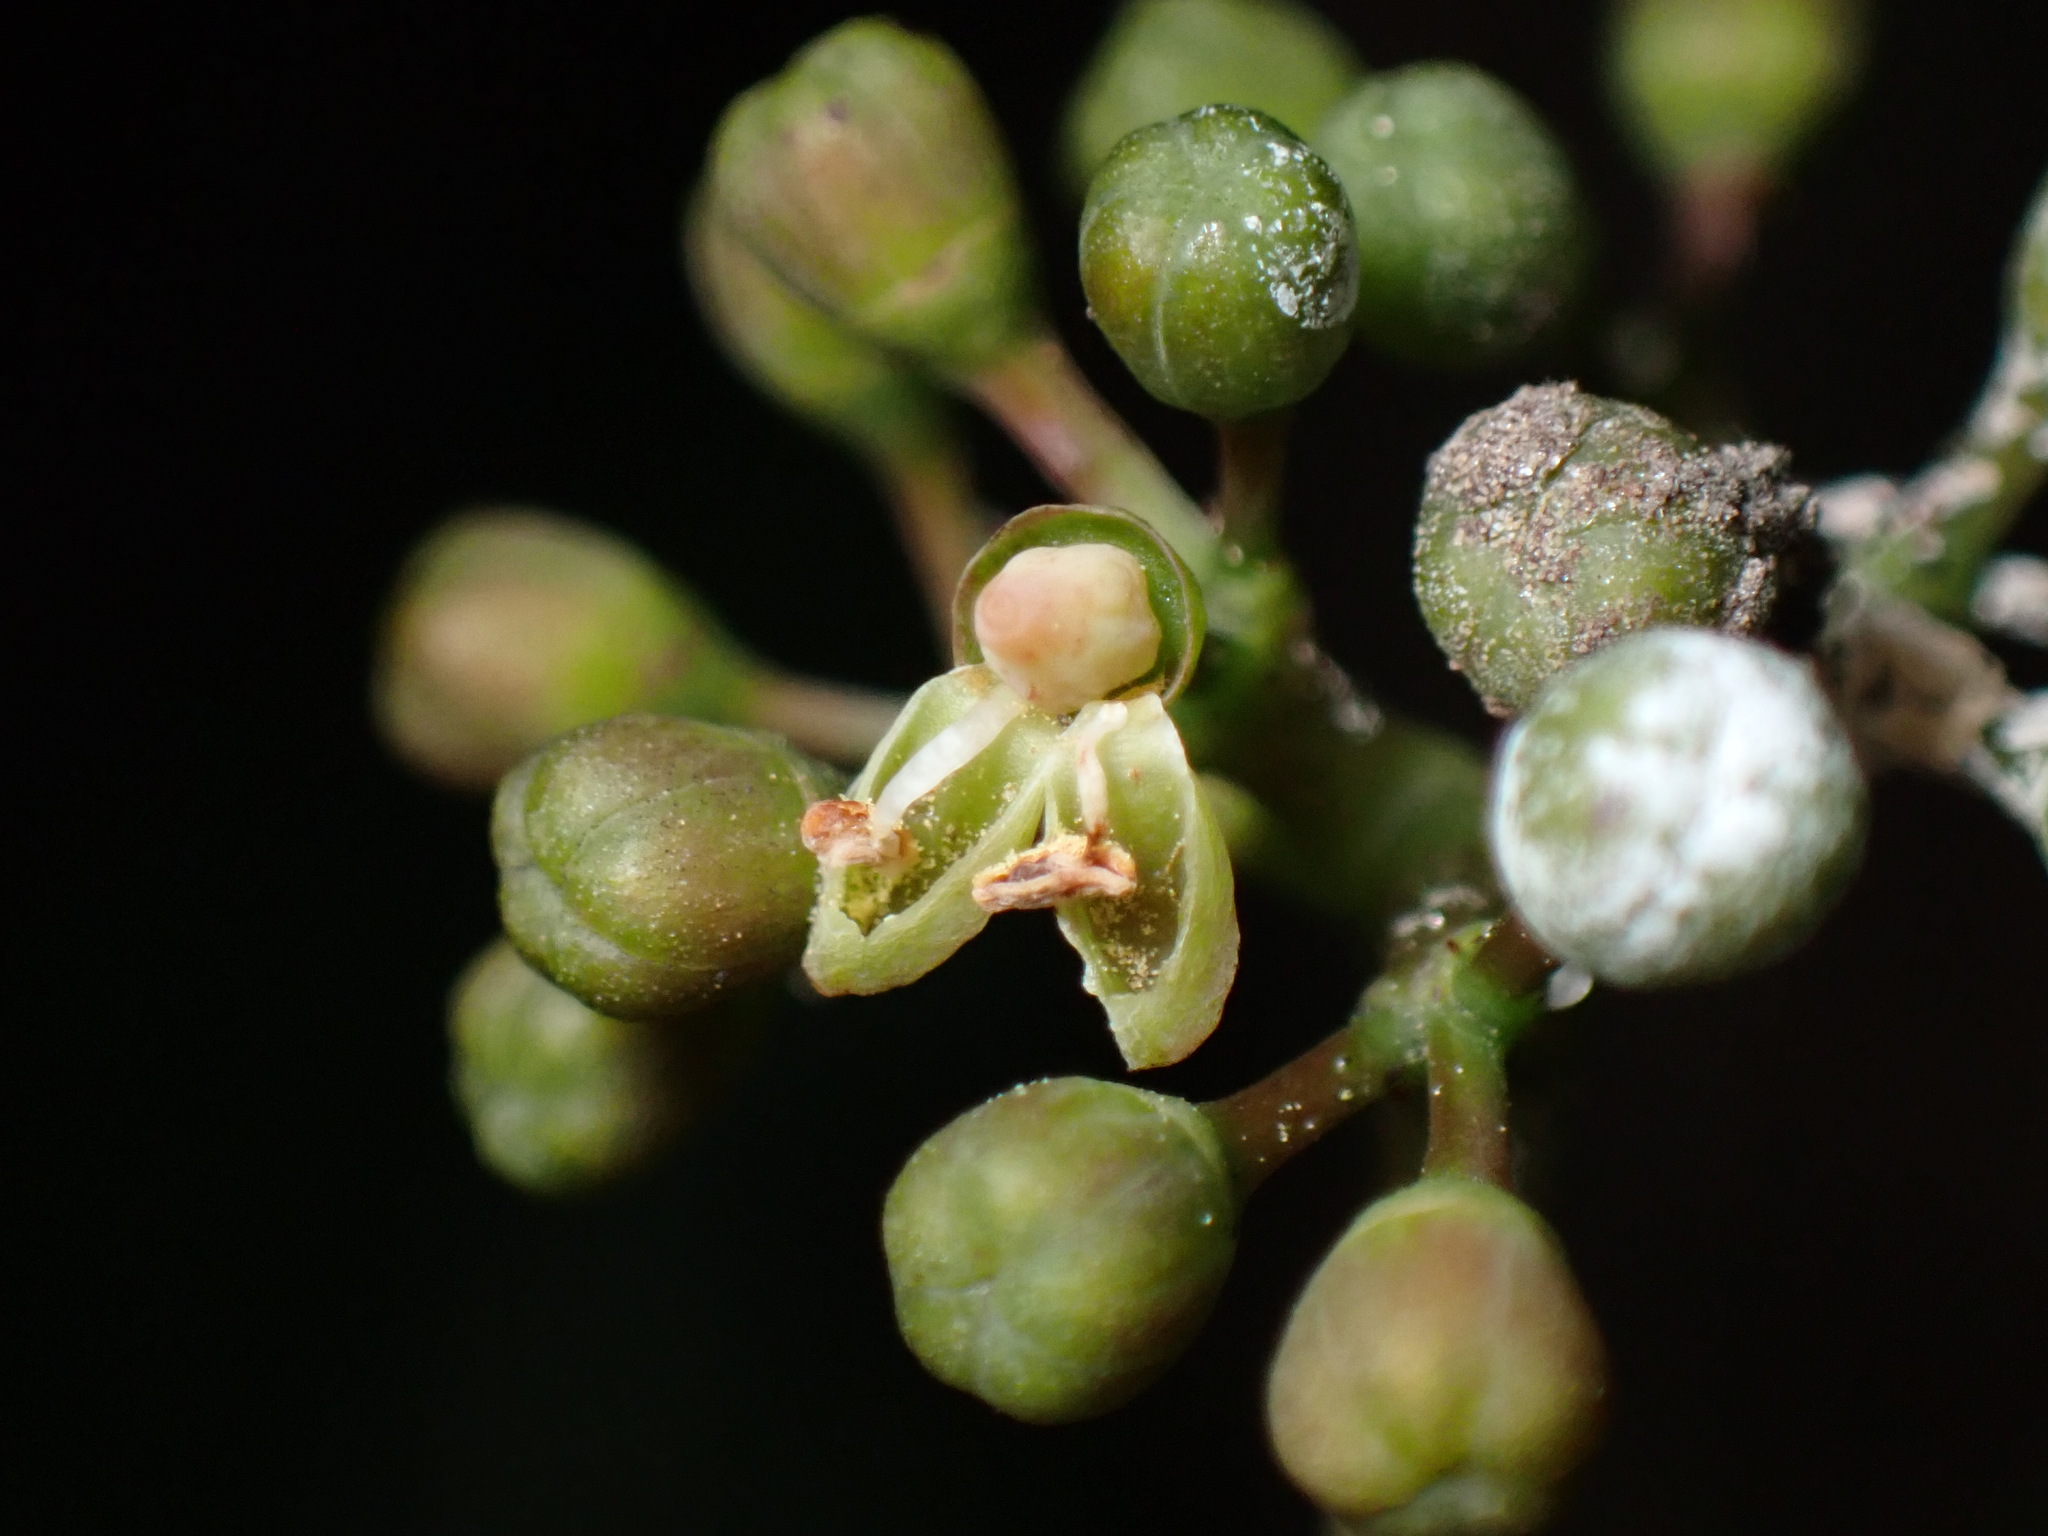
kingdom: Plantae
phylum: Tracheophyta
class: Magnoliopsida
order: Vitales
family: Vitaceae
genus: Parthenocissus
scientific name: Parthenocissus quinquefolia
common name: Virginia-creeper
